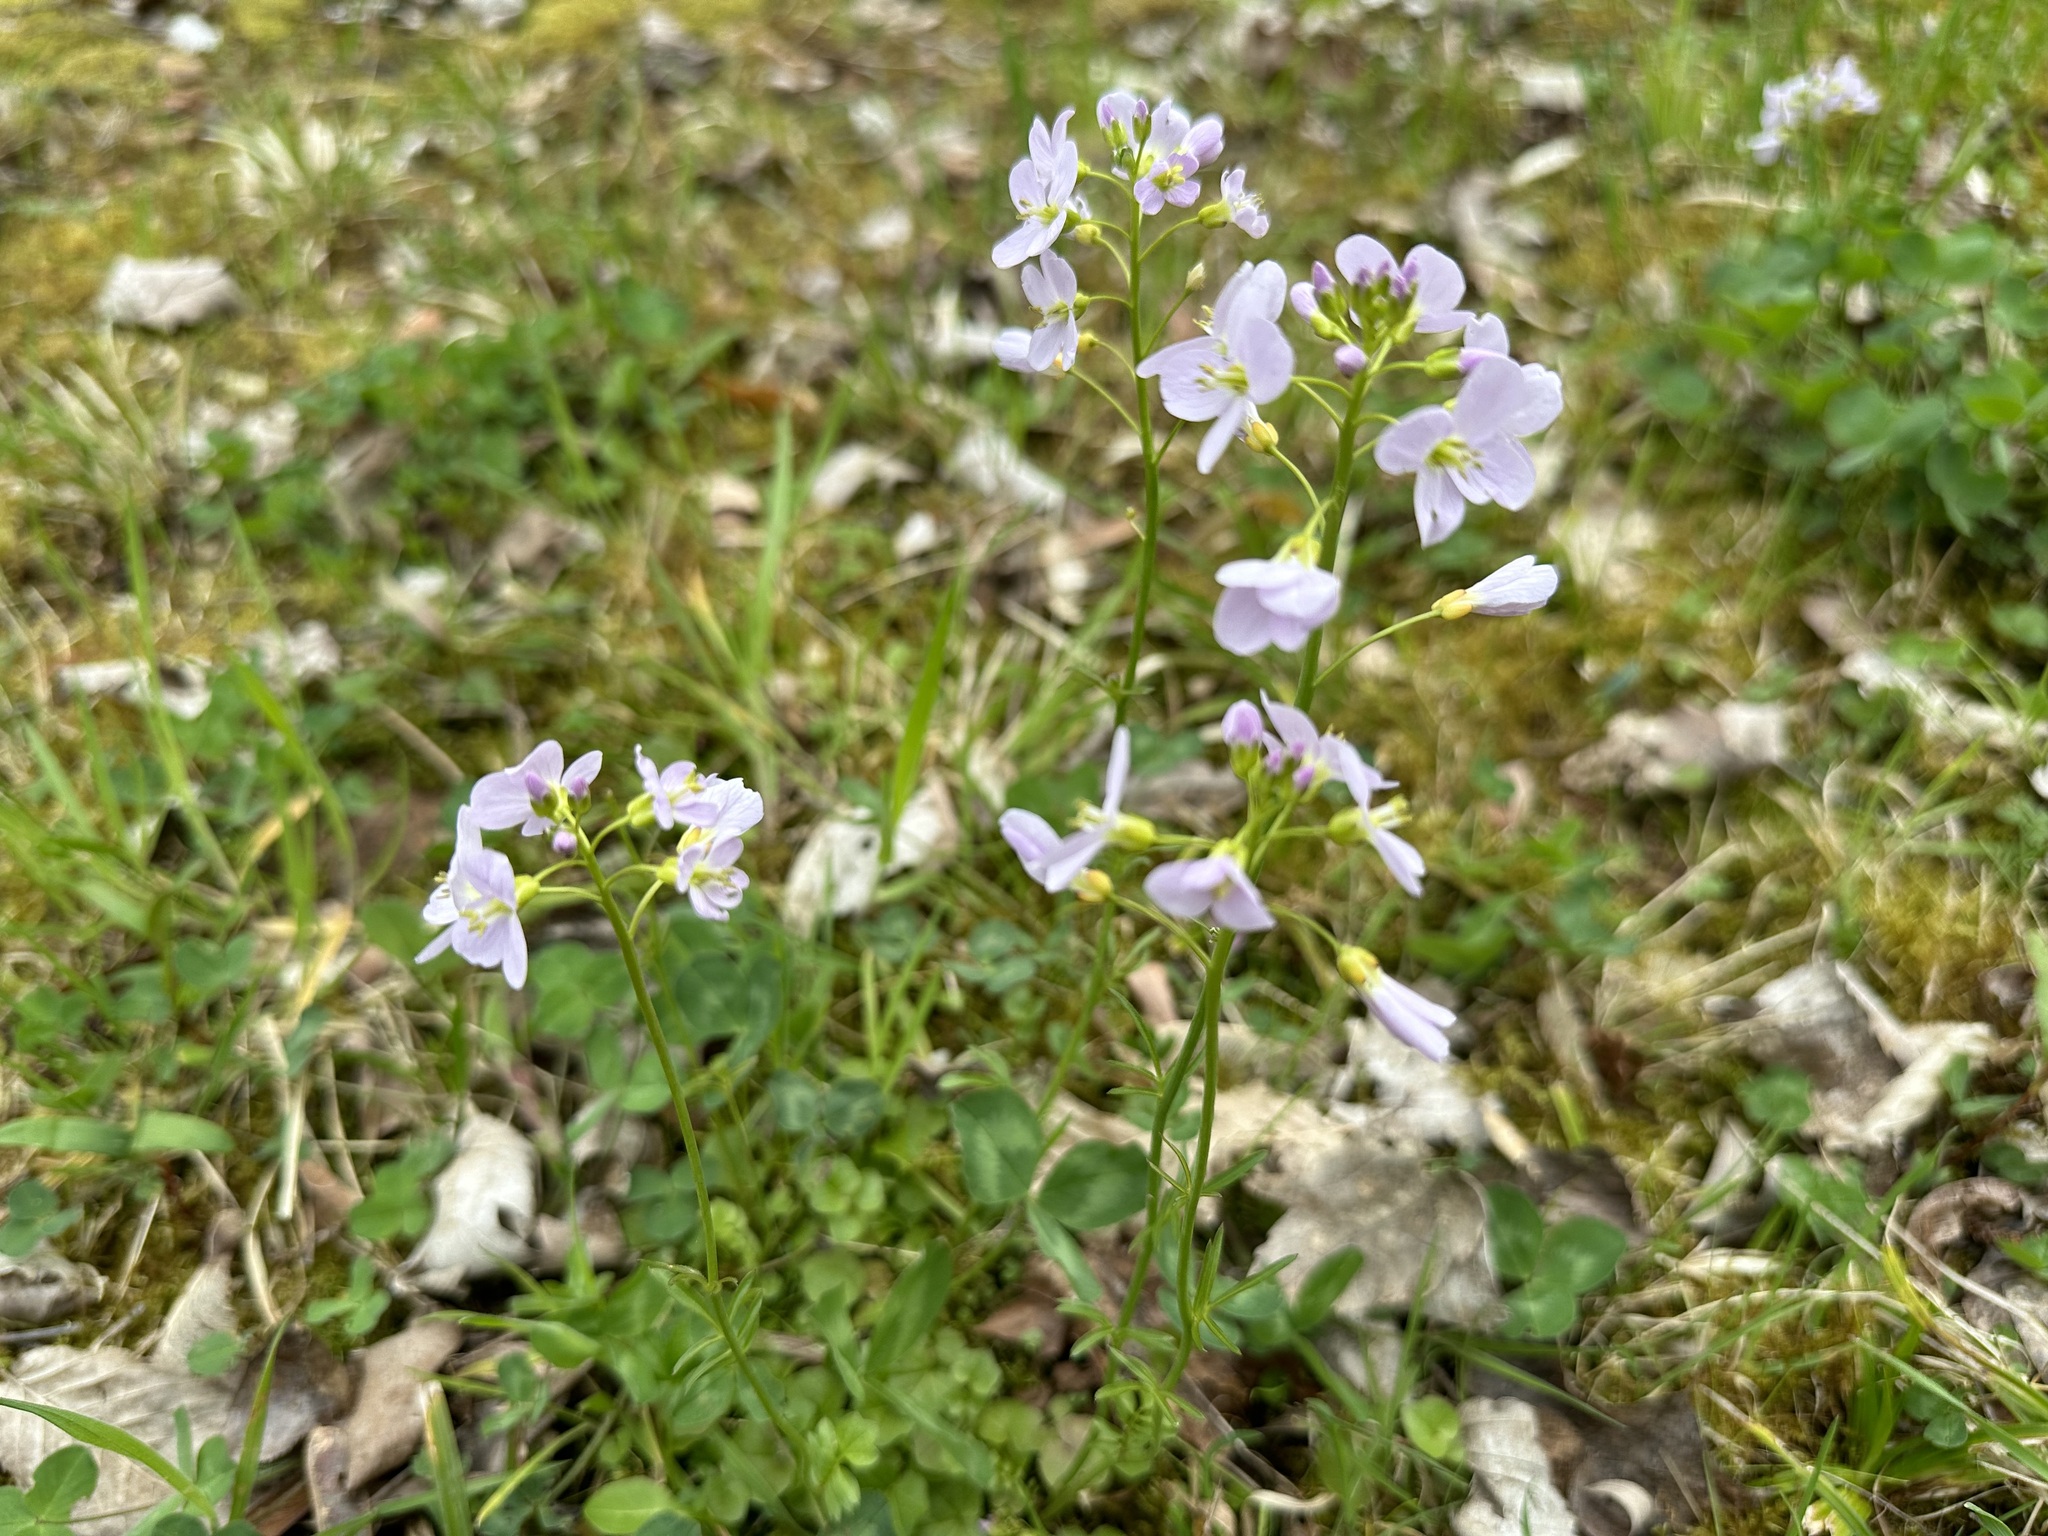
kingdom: Plantae
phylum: Tracheophyta
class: Magnoliopsida
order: Brassicales
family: Brassicaceae
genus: Cardamine
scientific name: Cardamine pratensis
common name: Cuckoo flower
